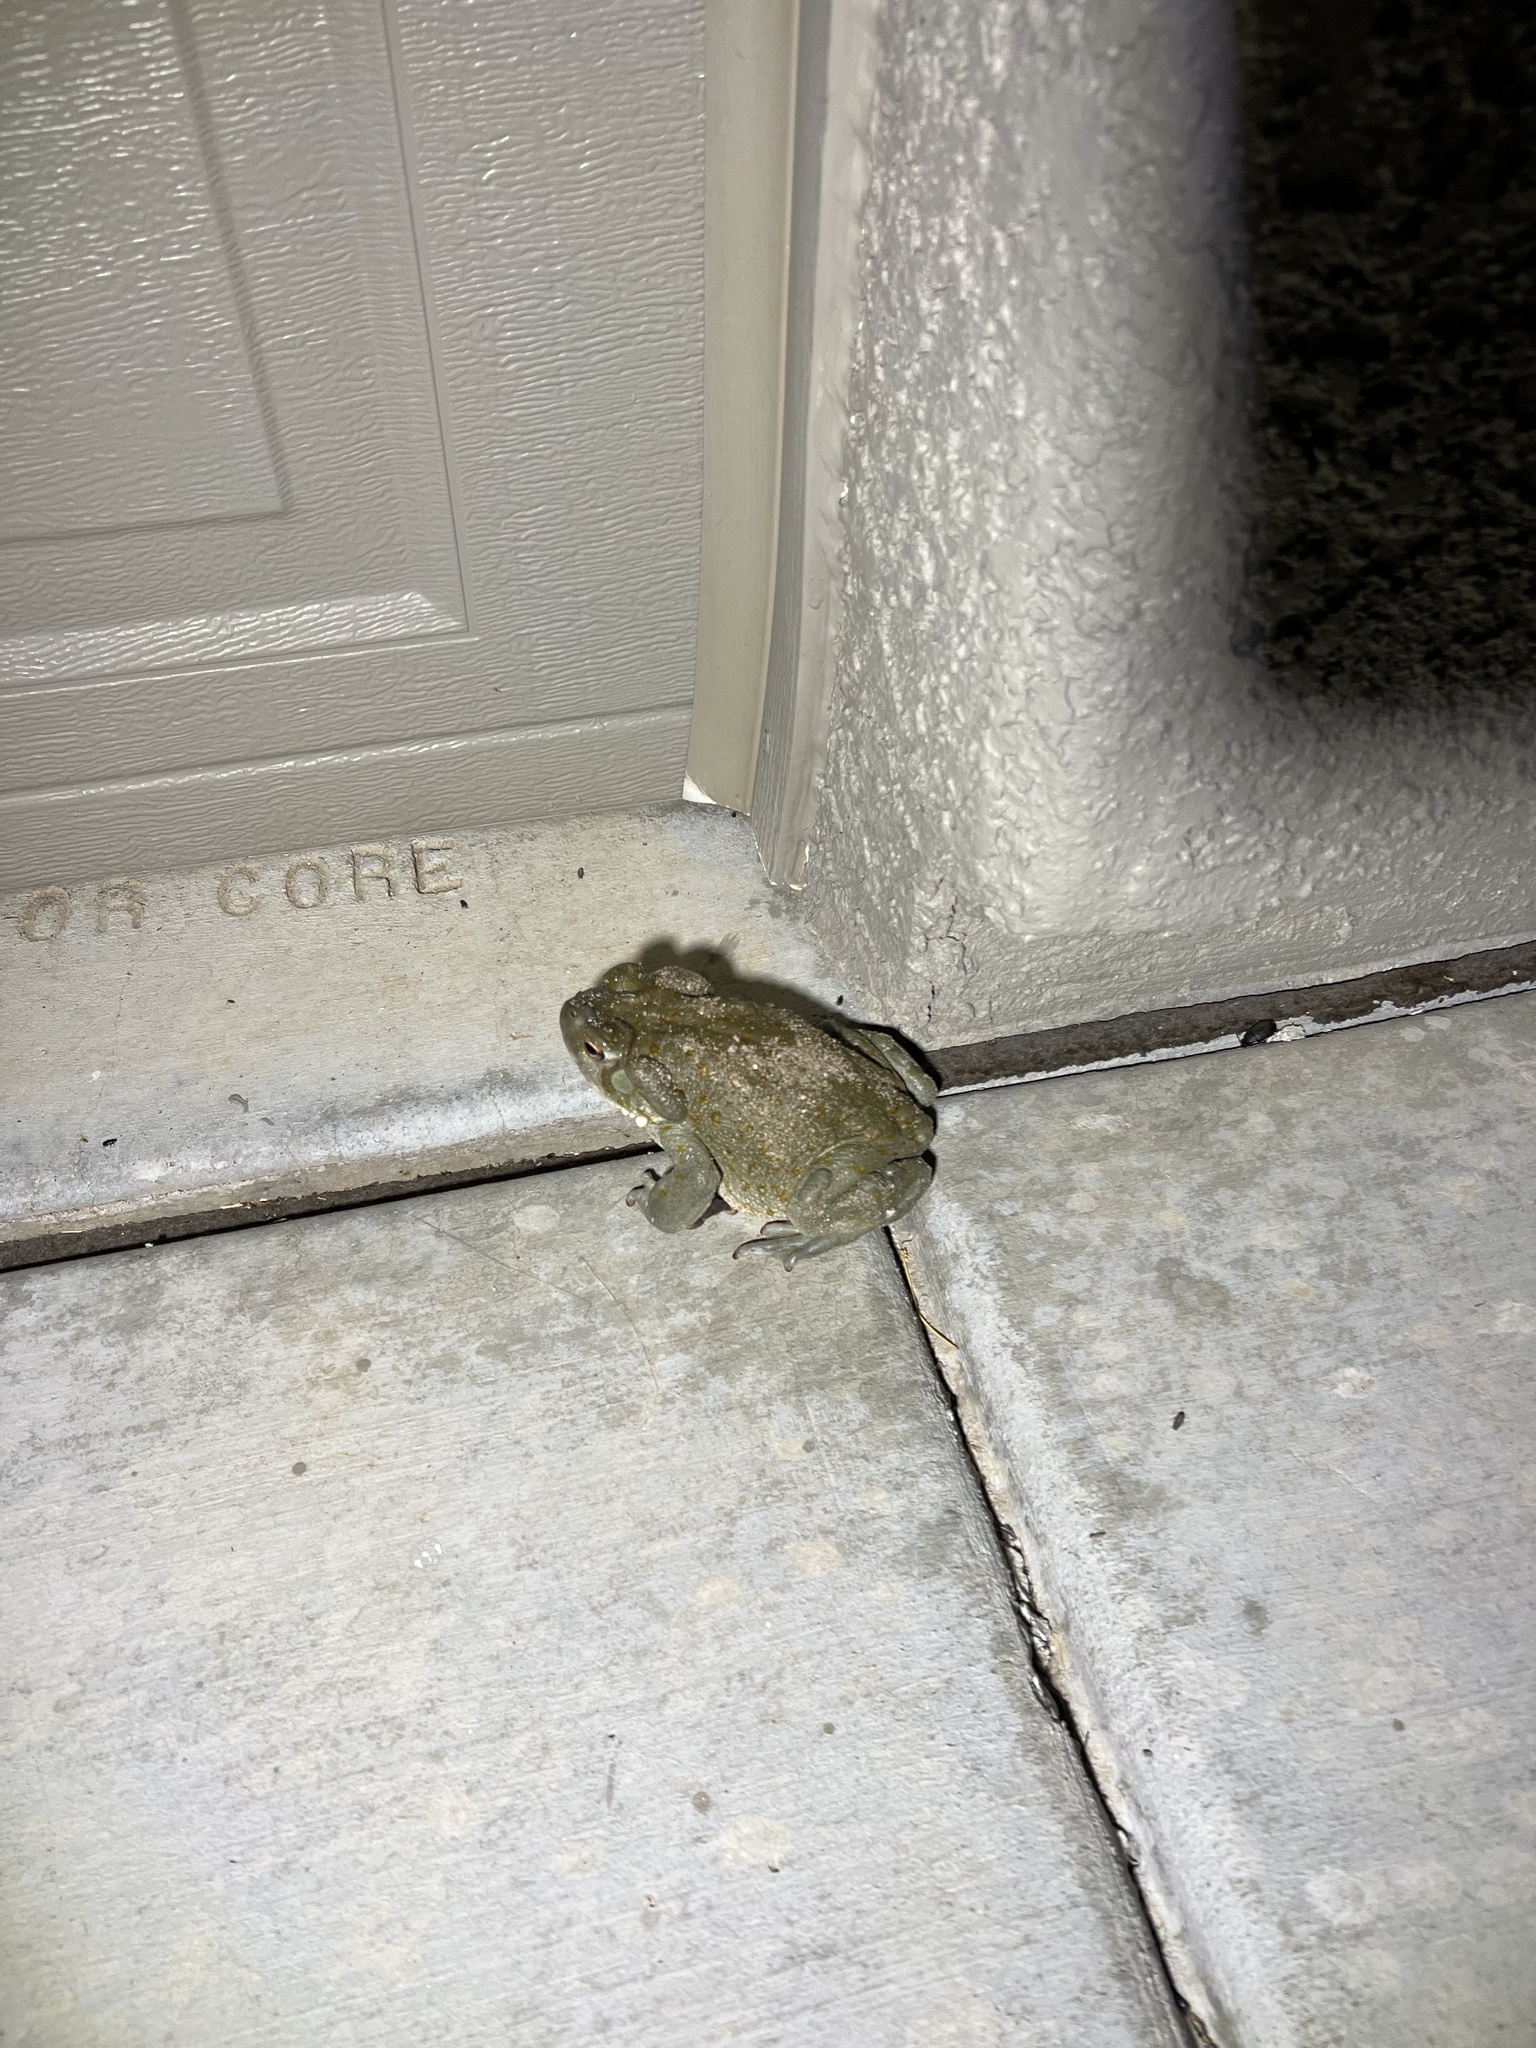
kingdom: Animalia
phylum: Chordata
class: Amphibia
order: Anura
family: Bufonidae
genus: Incilius
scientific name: Incilius alvarius
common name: Sonoran desert toad
